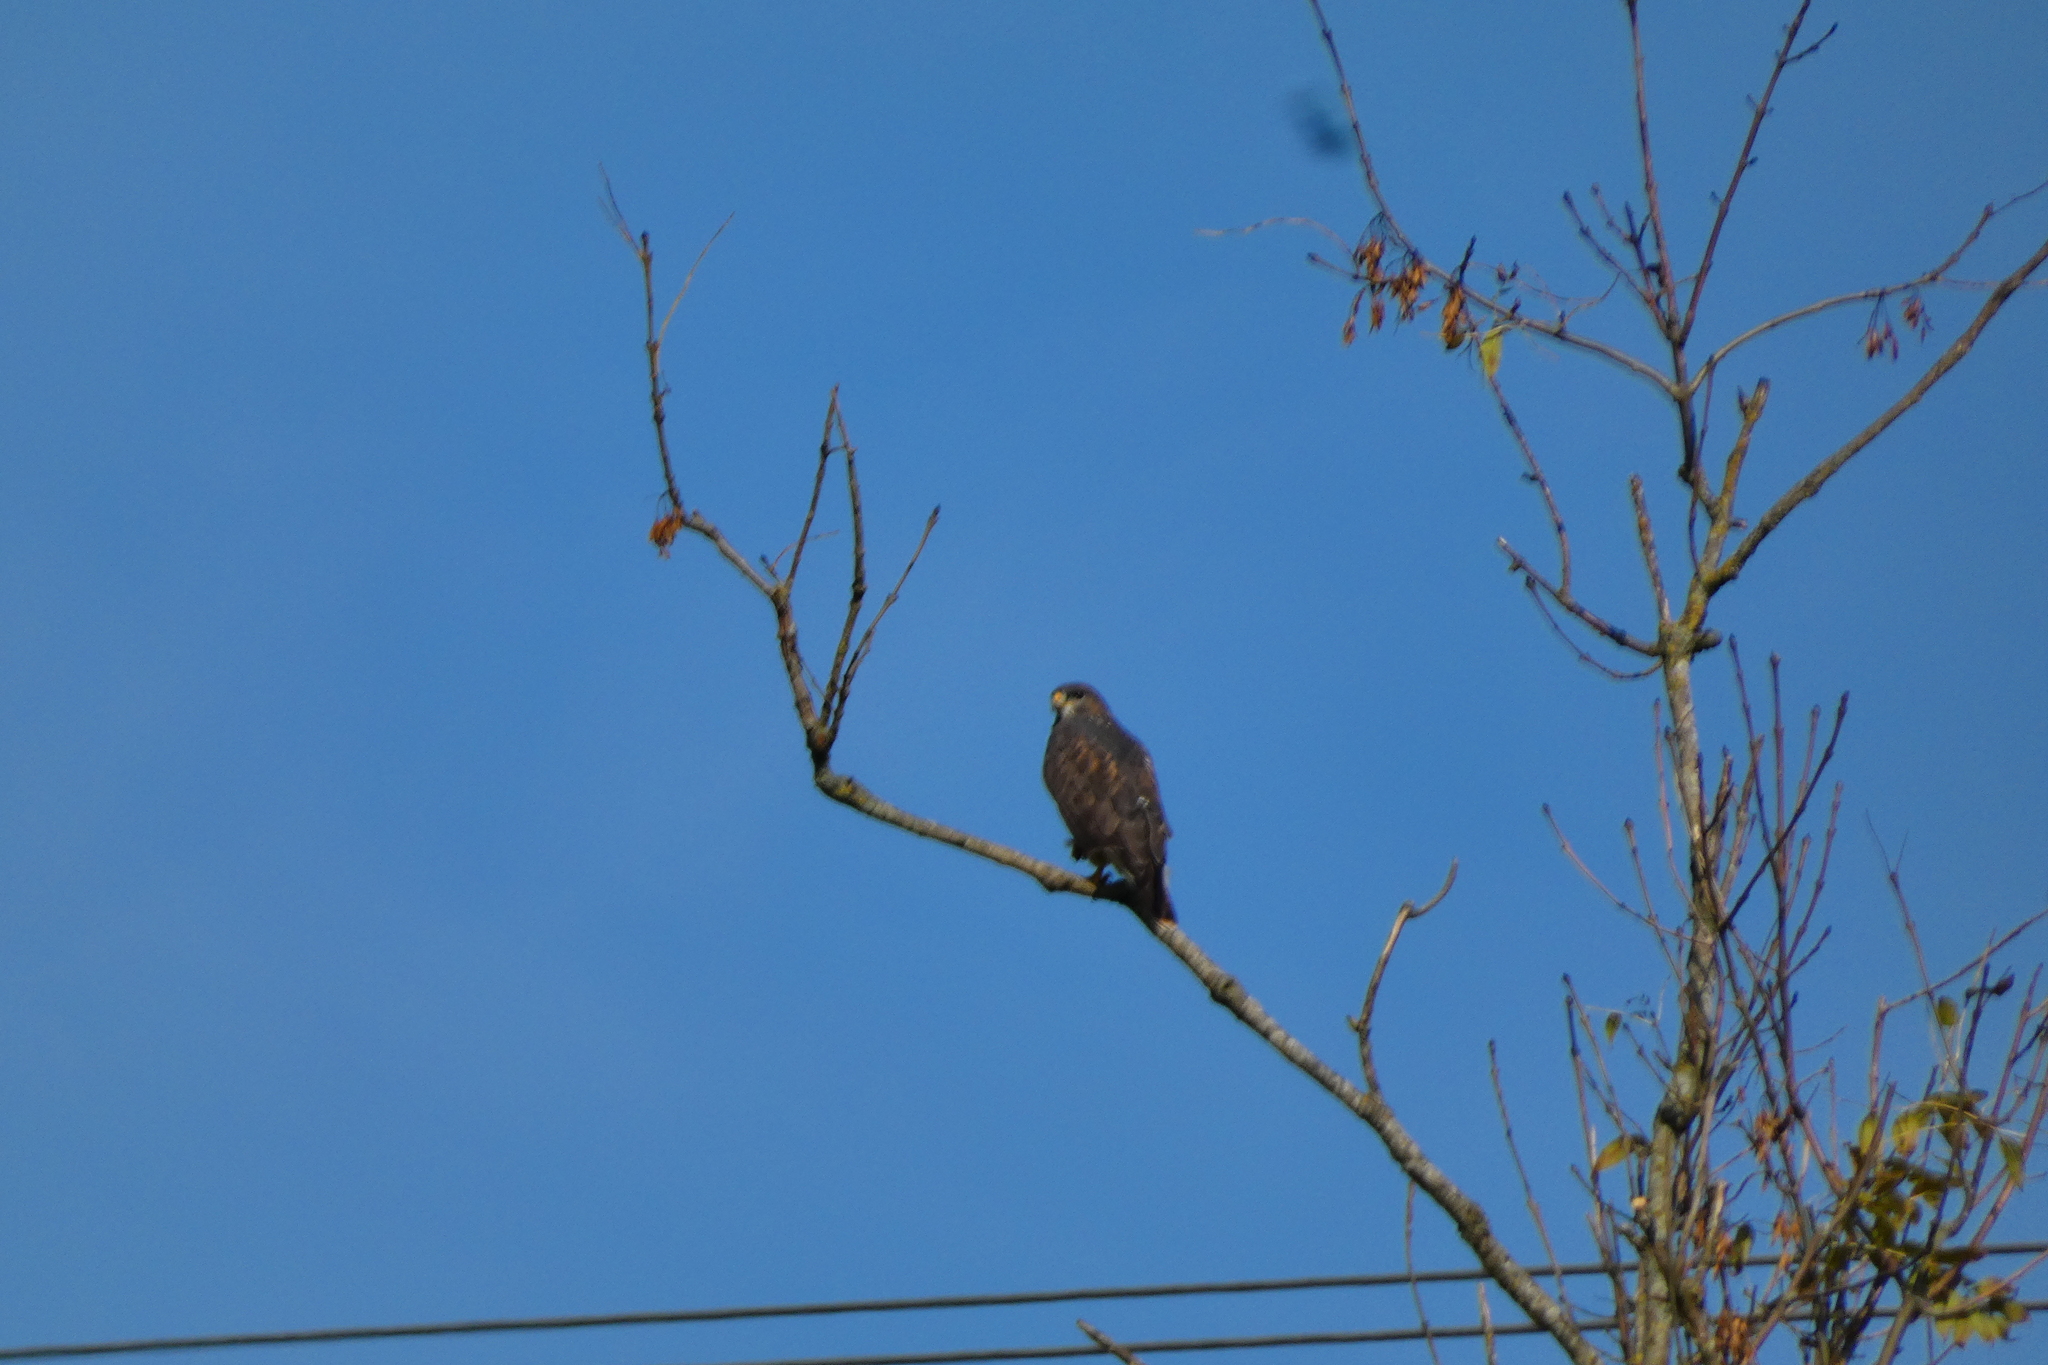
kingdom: Animalia
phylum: Chordata
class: Aves
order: Accipitriformes
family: Accipitridae
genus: Buteo
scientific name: Buteo buteo
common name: Common buzzard
